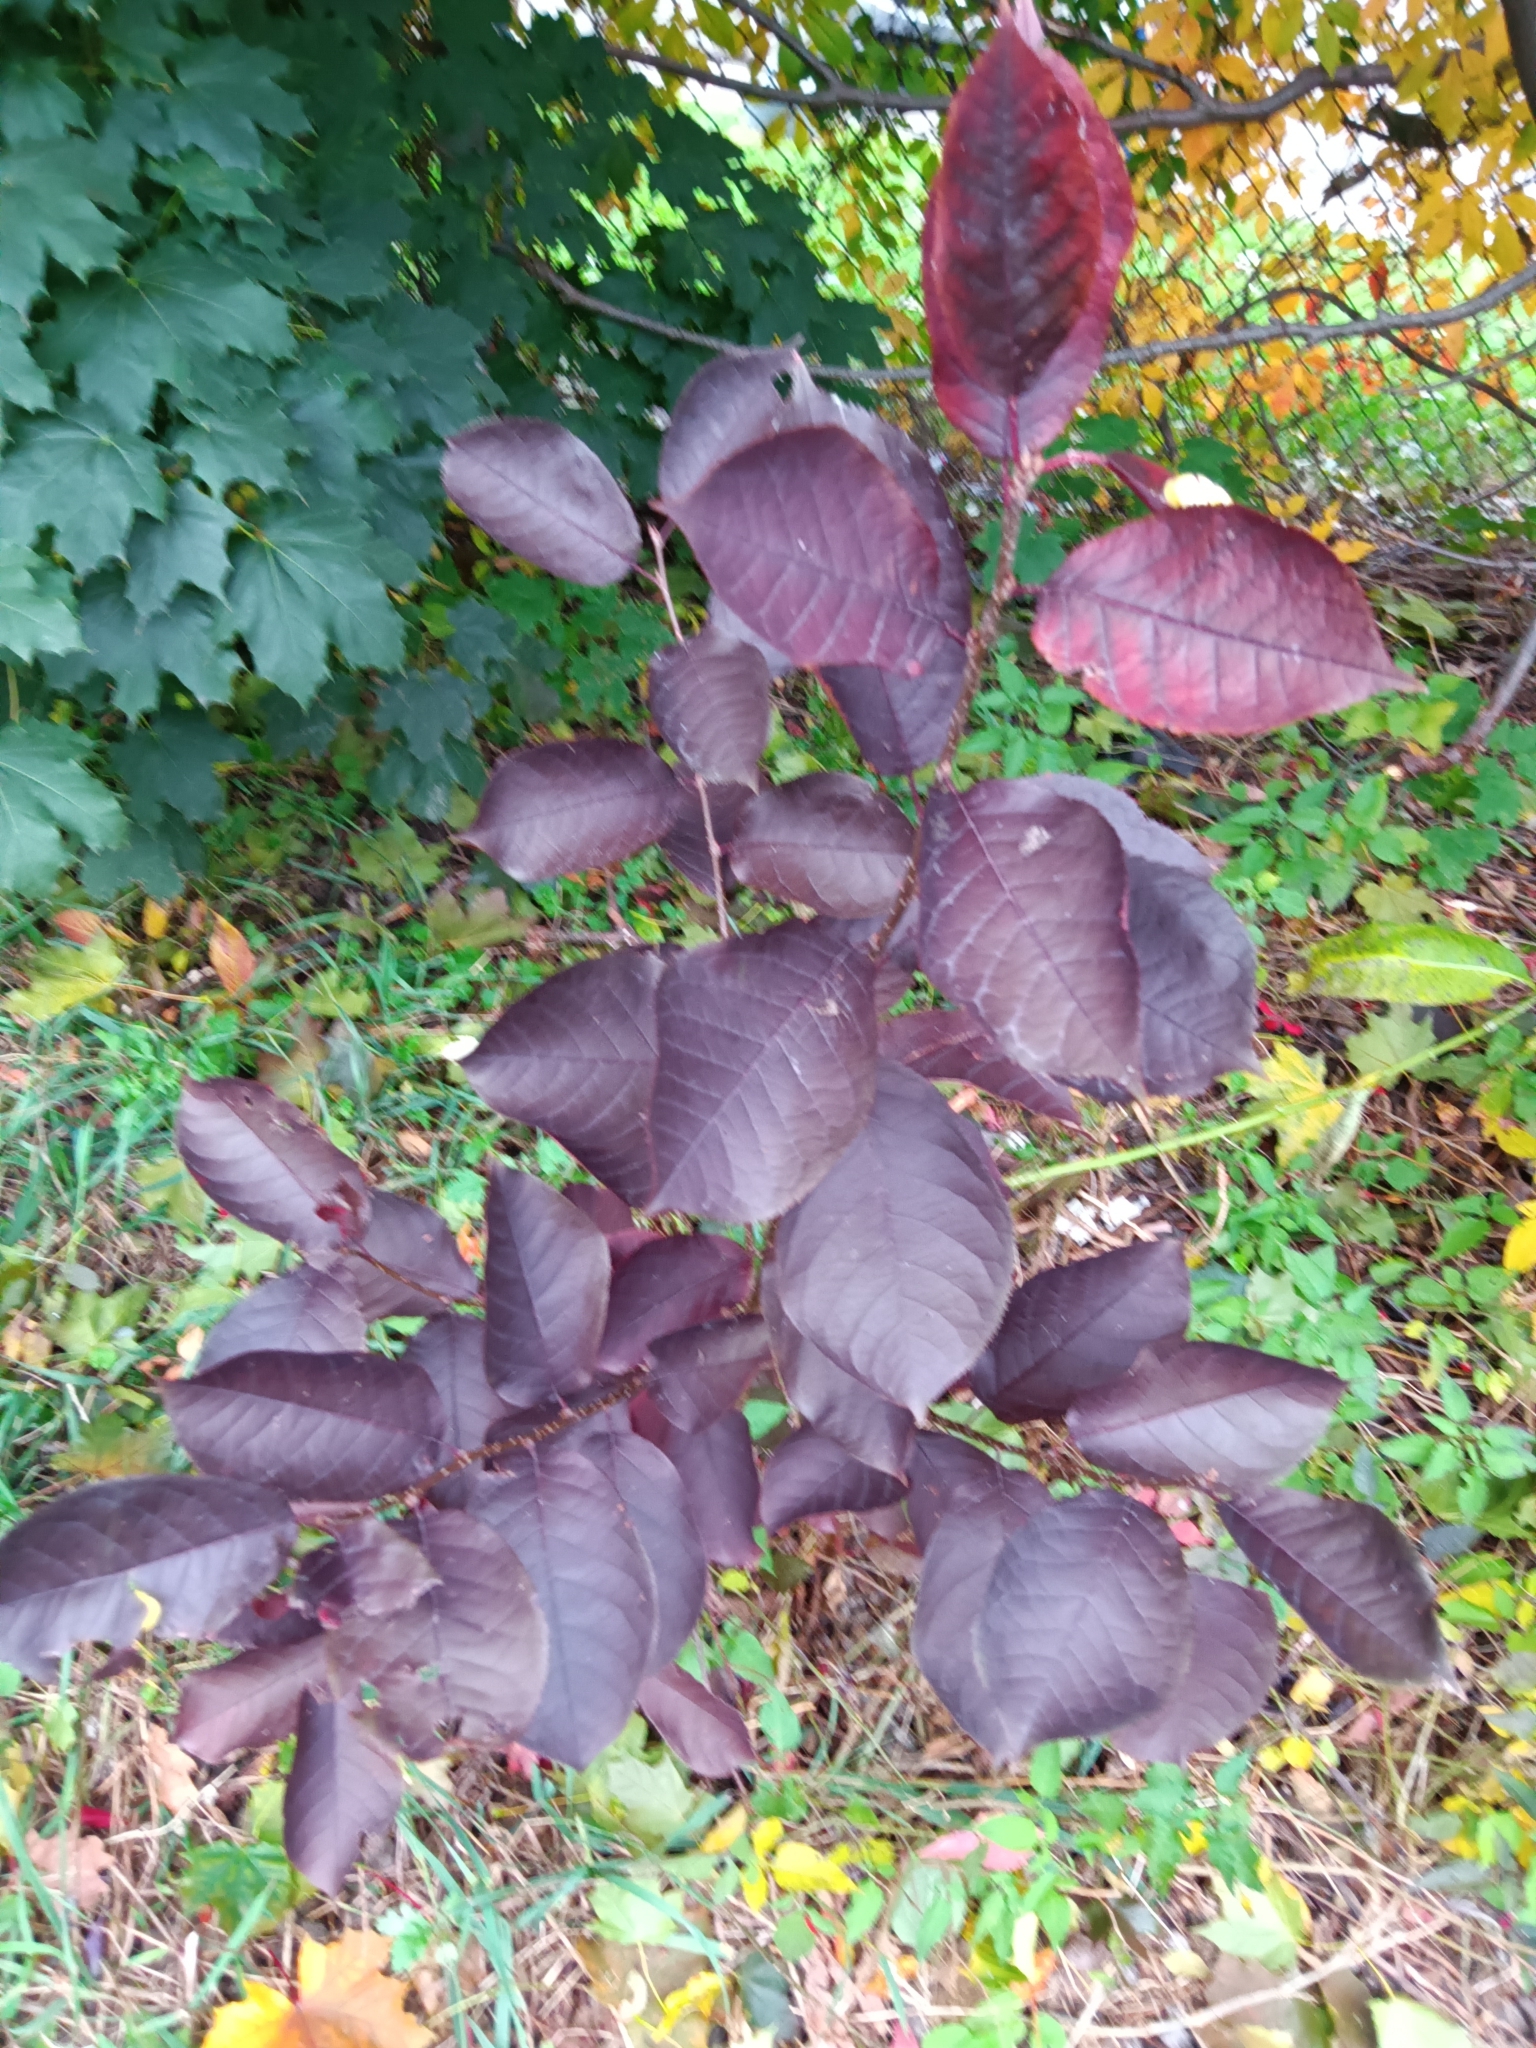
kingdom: Plantae
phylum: Tracheophyta
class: Magnoliopsida
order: Rosales
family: Rosaceae
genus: Prunus
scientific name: Prunus virginiana
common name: Chokecherry
